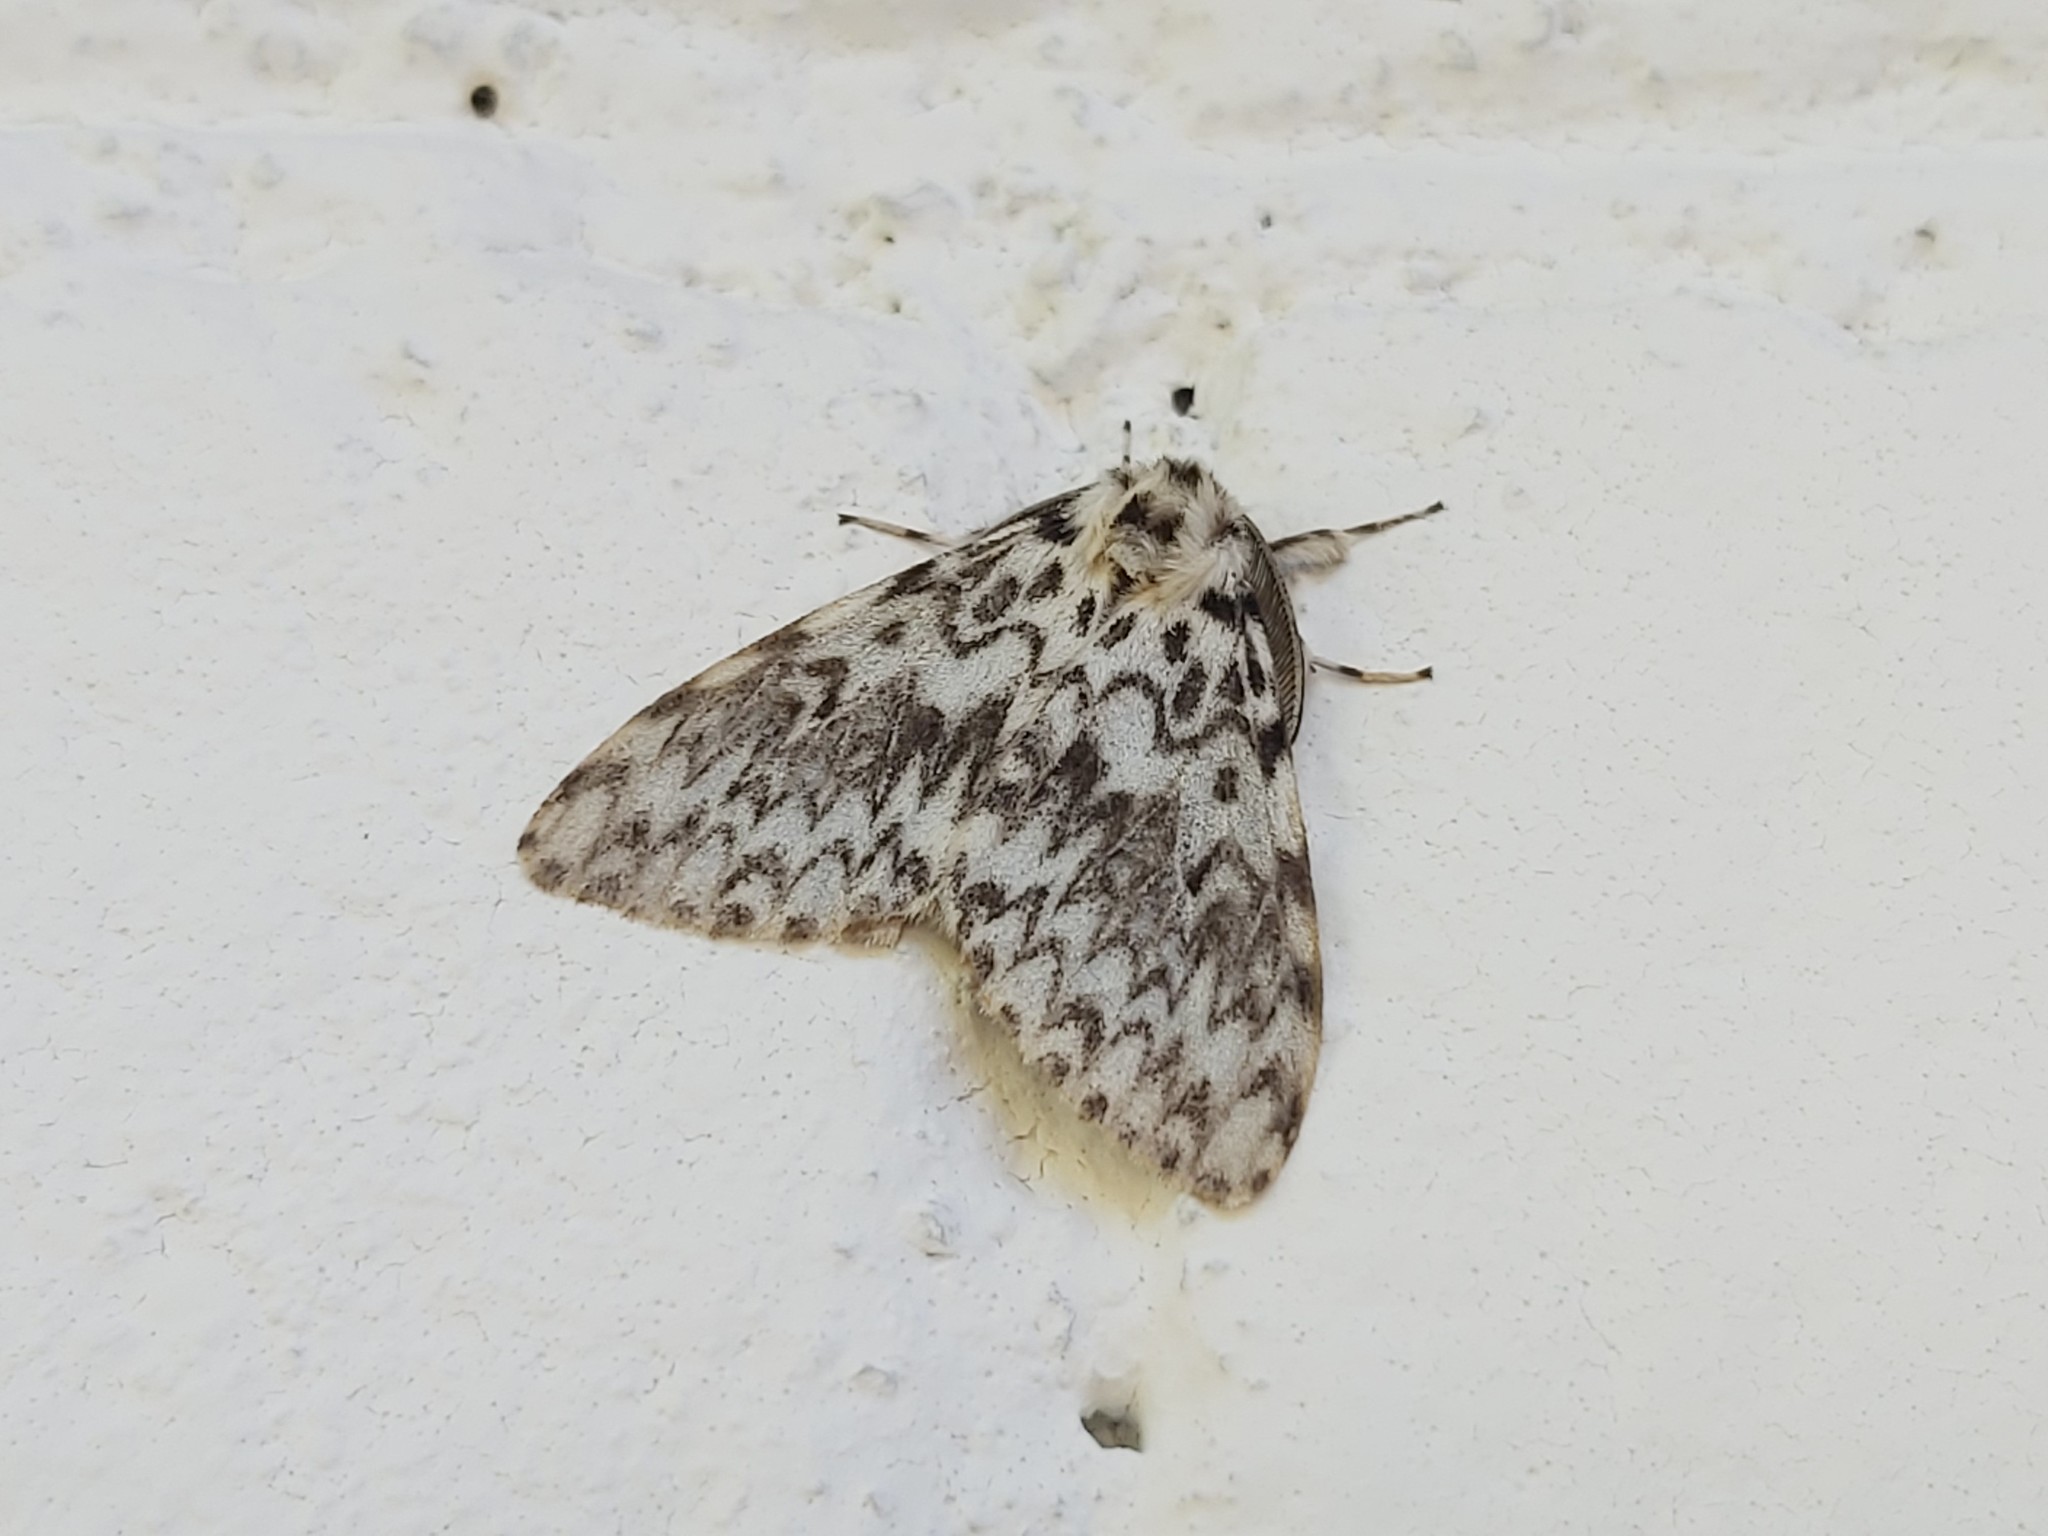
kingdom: Animalia
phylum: Arthropoda
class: Insecta
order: Lepidoptera
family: Erebidae
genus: Lymantria
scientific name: Lymantria monacha
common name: Black arches
